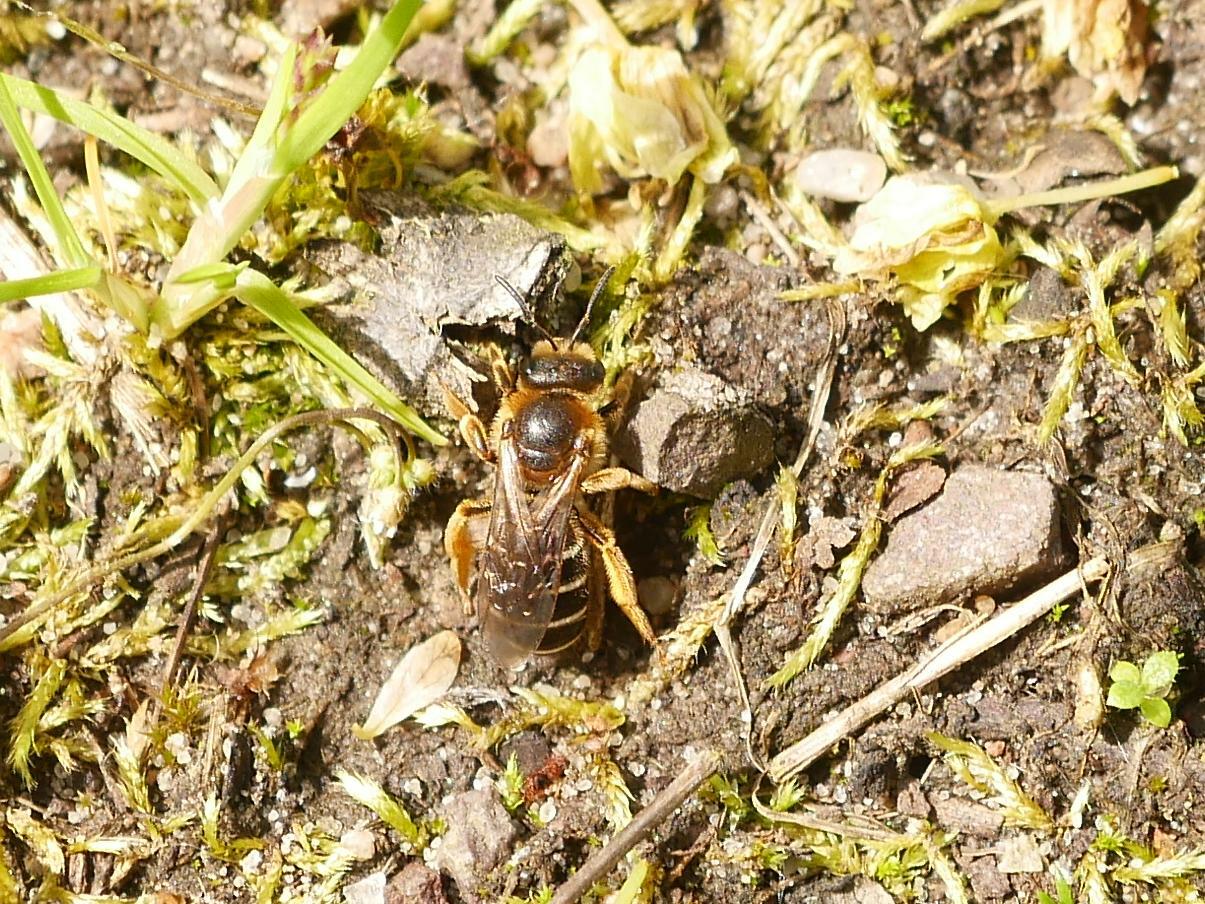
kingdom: Animalia
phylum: Arthropoda
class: Insecta
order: Hymenoptera
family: Halictidae
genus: Halictus
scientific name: Halictus rubicundus
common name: Orange-legged furrow bee
